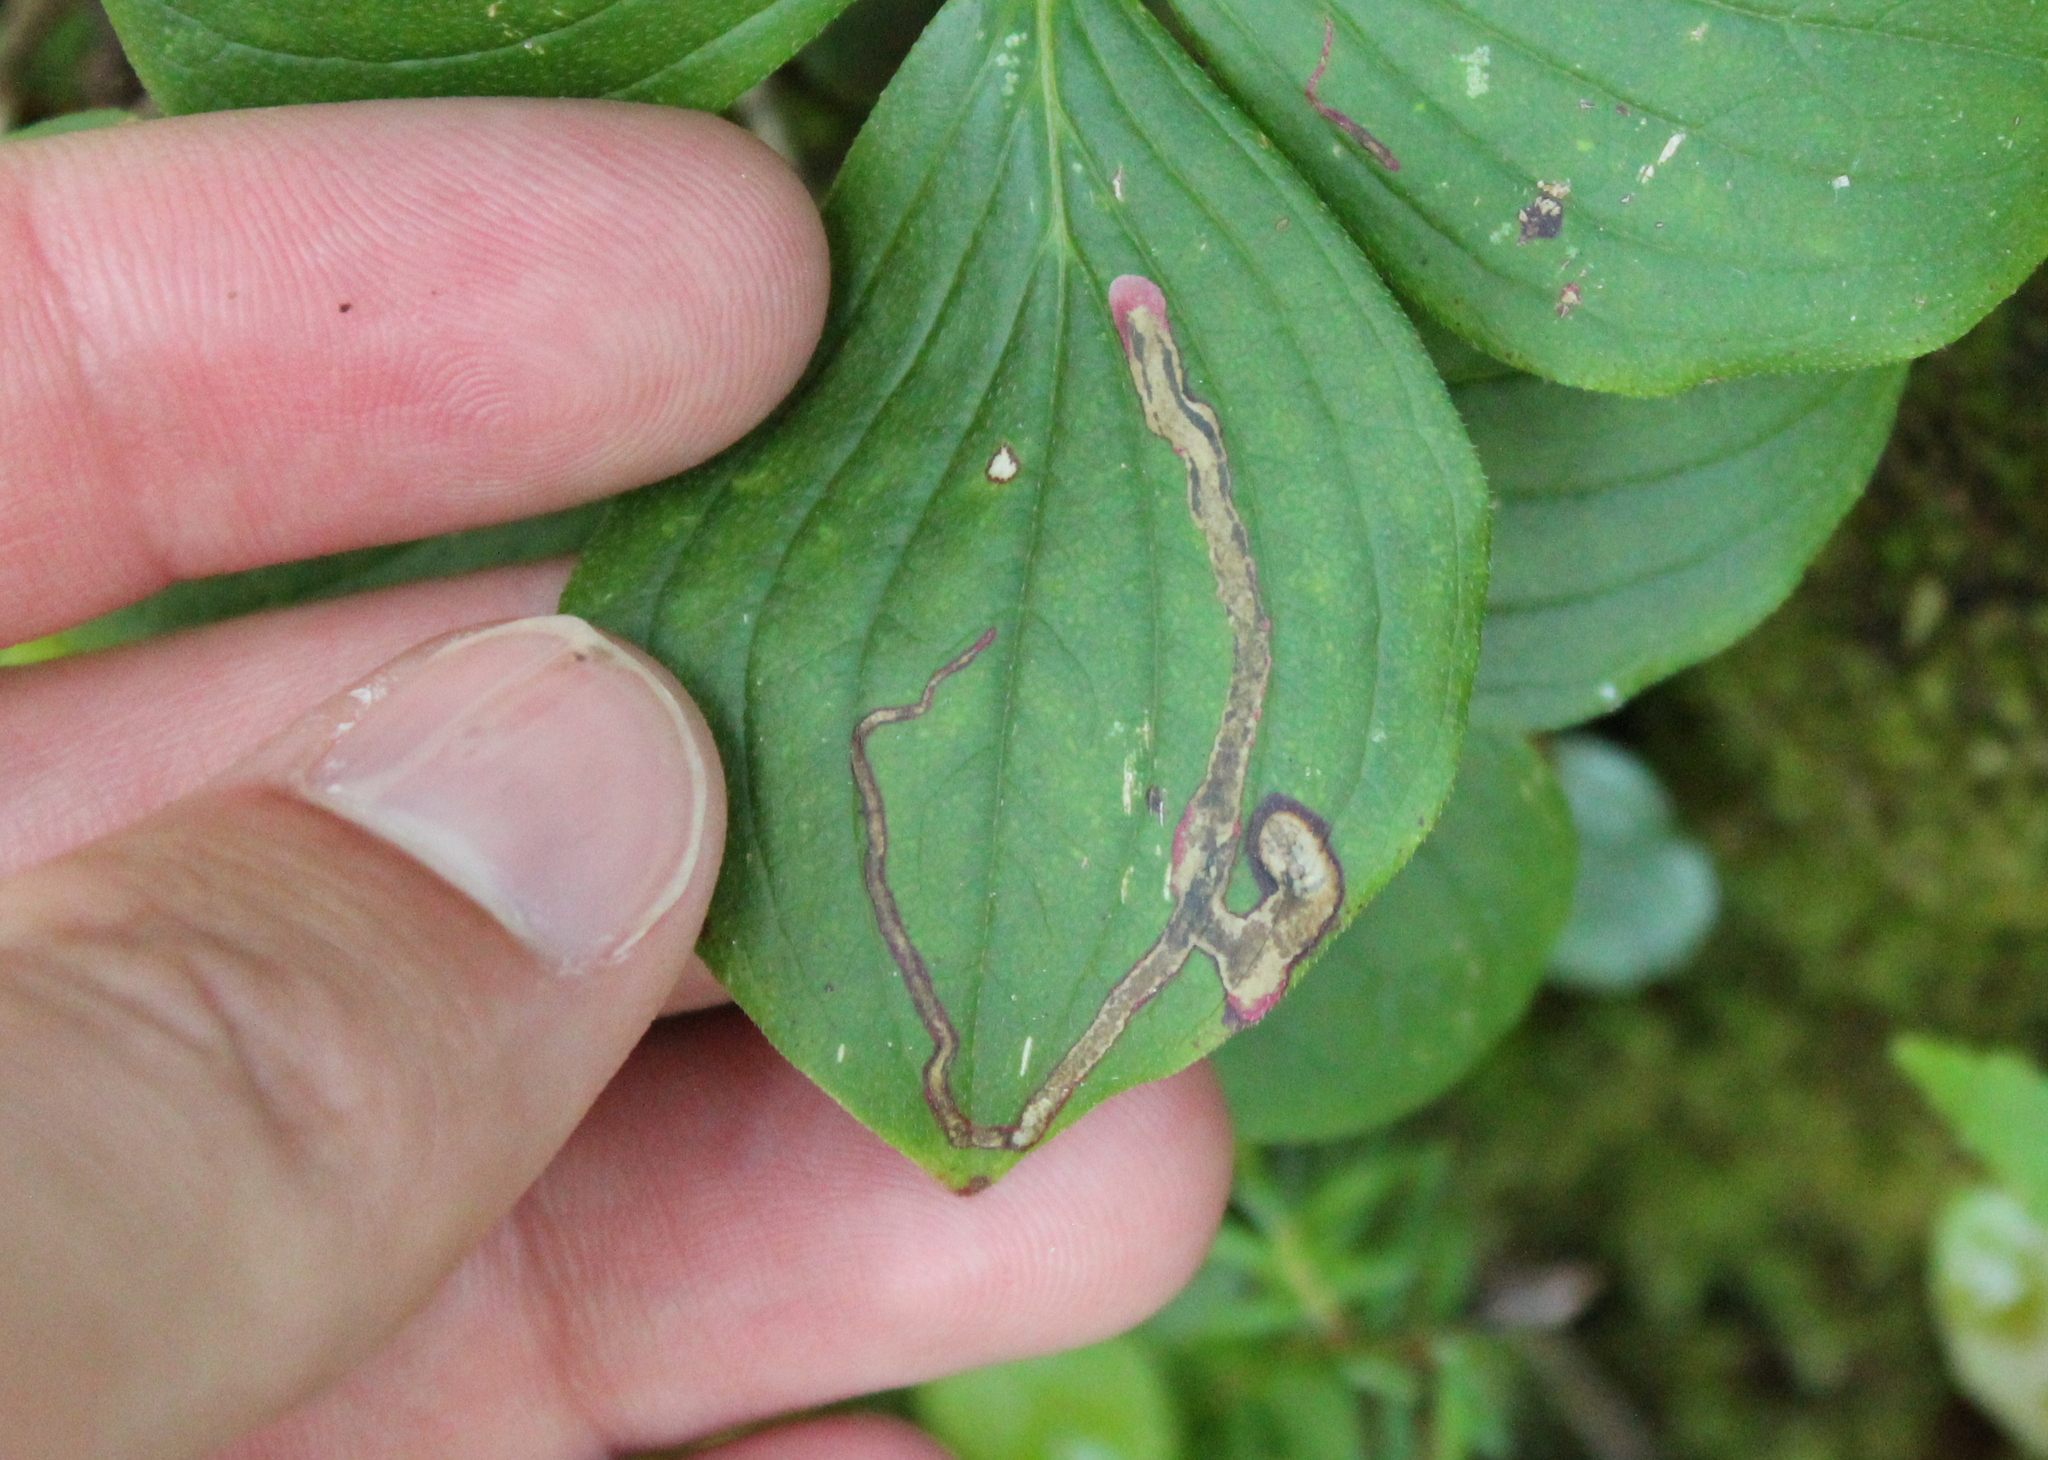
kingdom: Animalia
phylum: Arthropoda
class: Insecta
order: Diptera
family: Agromyzidae
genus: Phytomyza
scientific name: Phytomyza agromyzina
